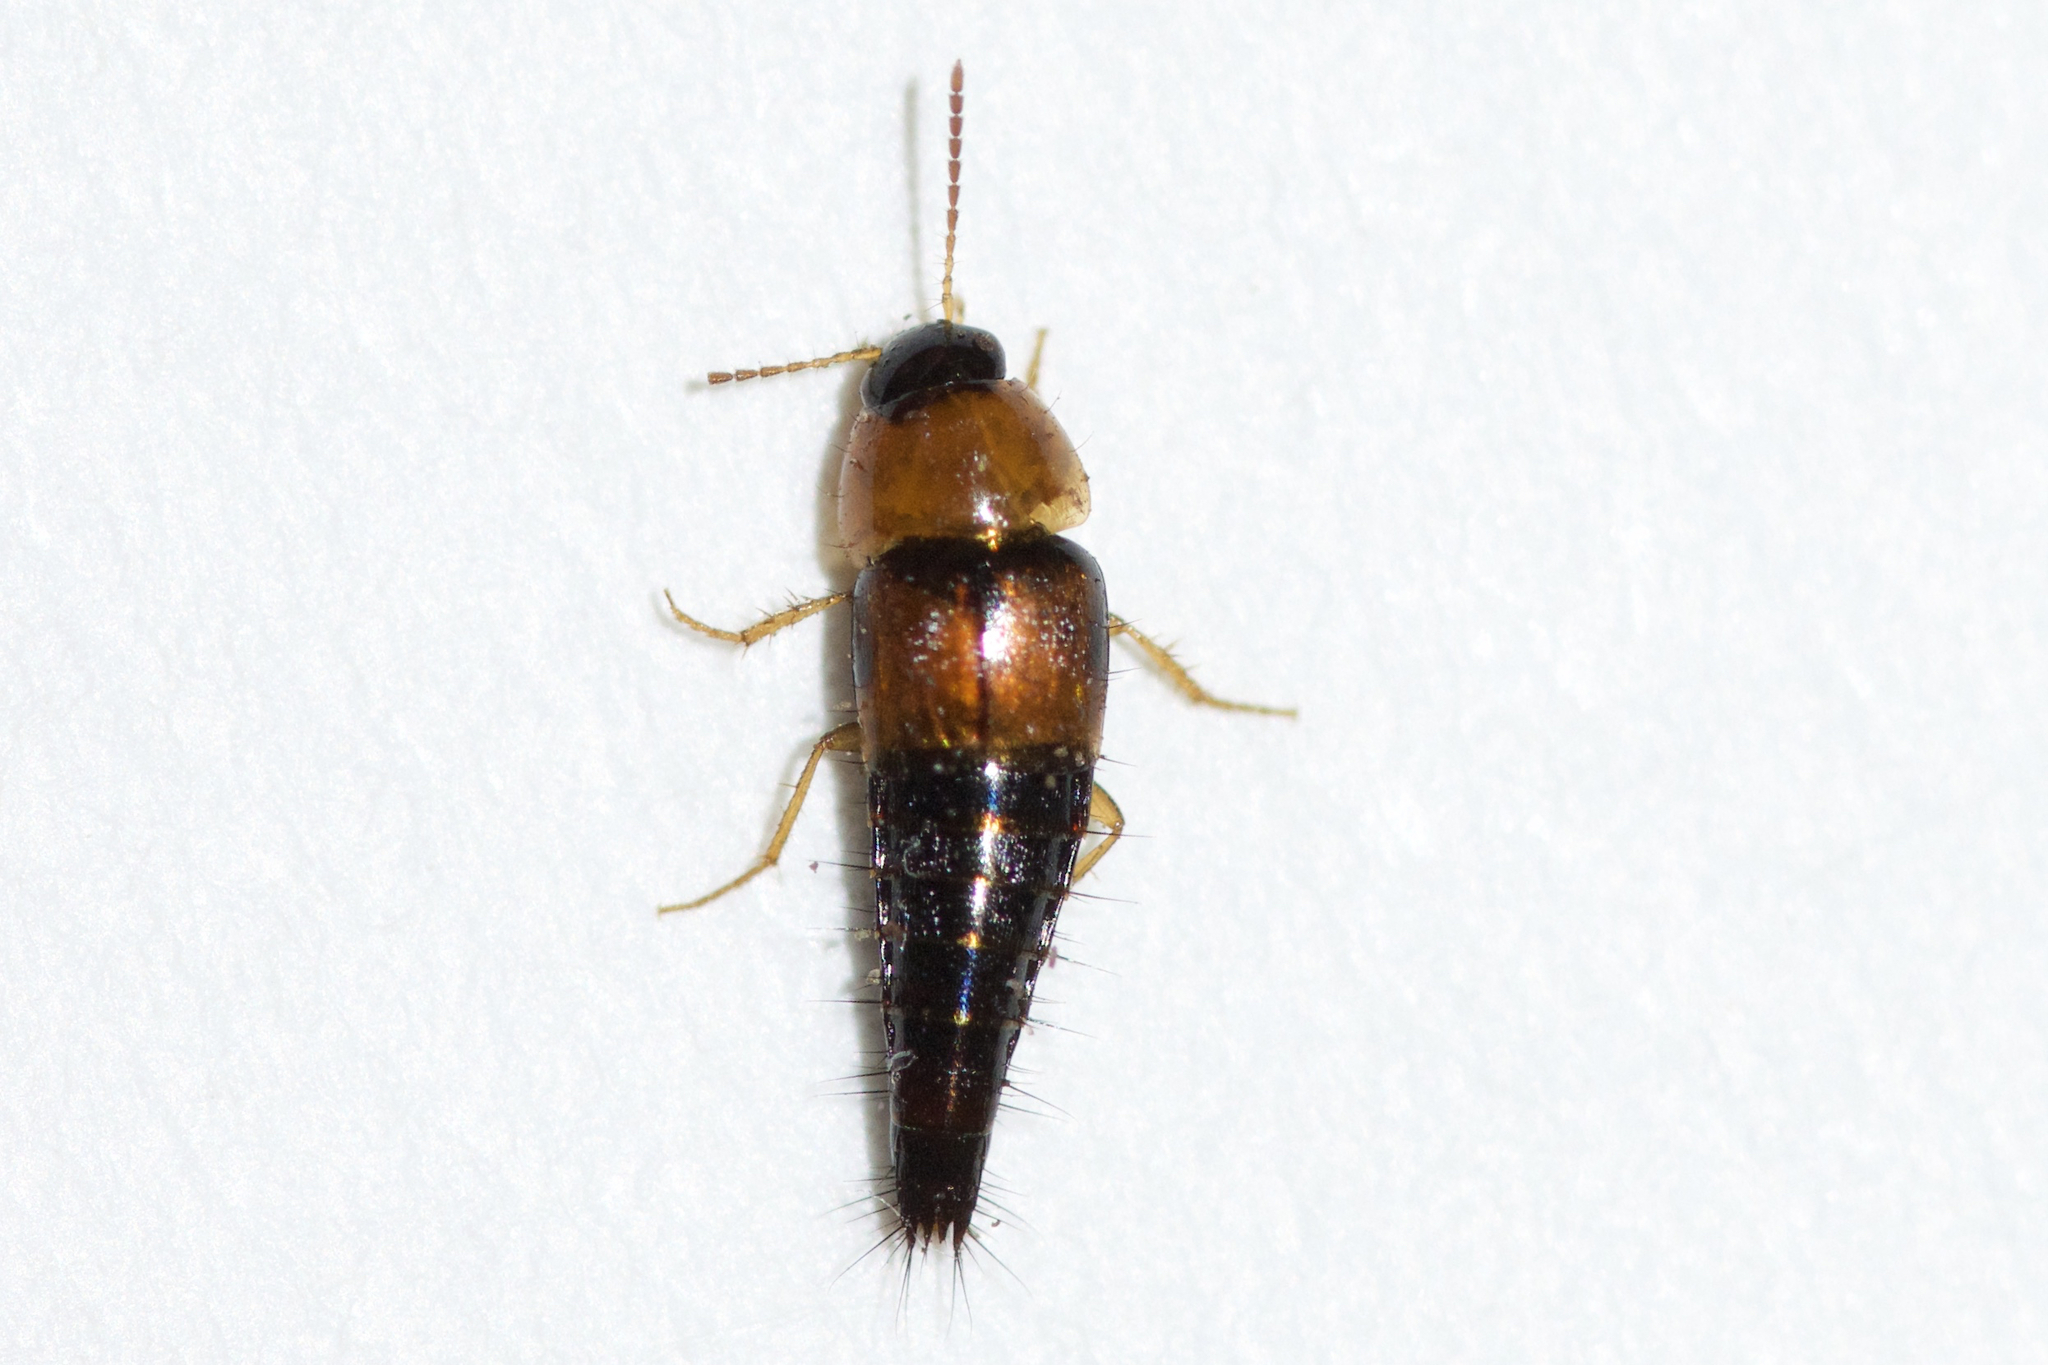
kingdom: Animalia
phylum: Arthropoda
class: Insecta
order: Coleoptera
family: Staphylinidae
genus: Tachyporus
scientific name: Tachyporus dispar
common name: Staph beetle
